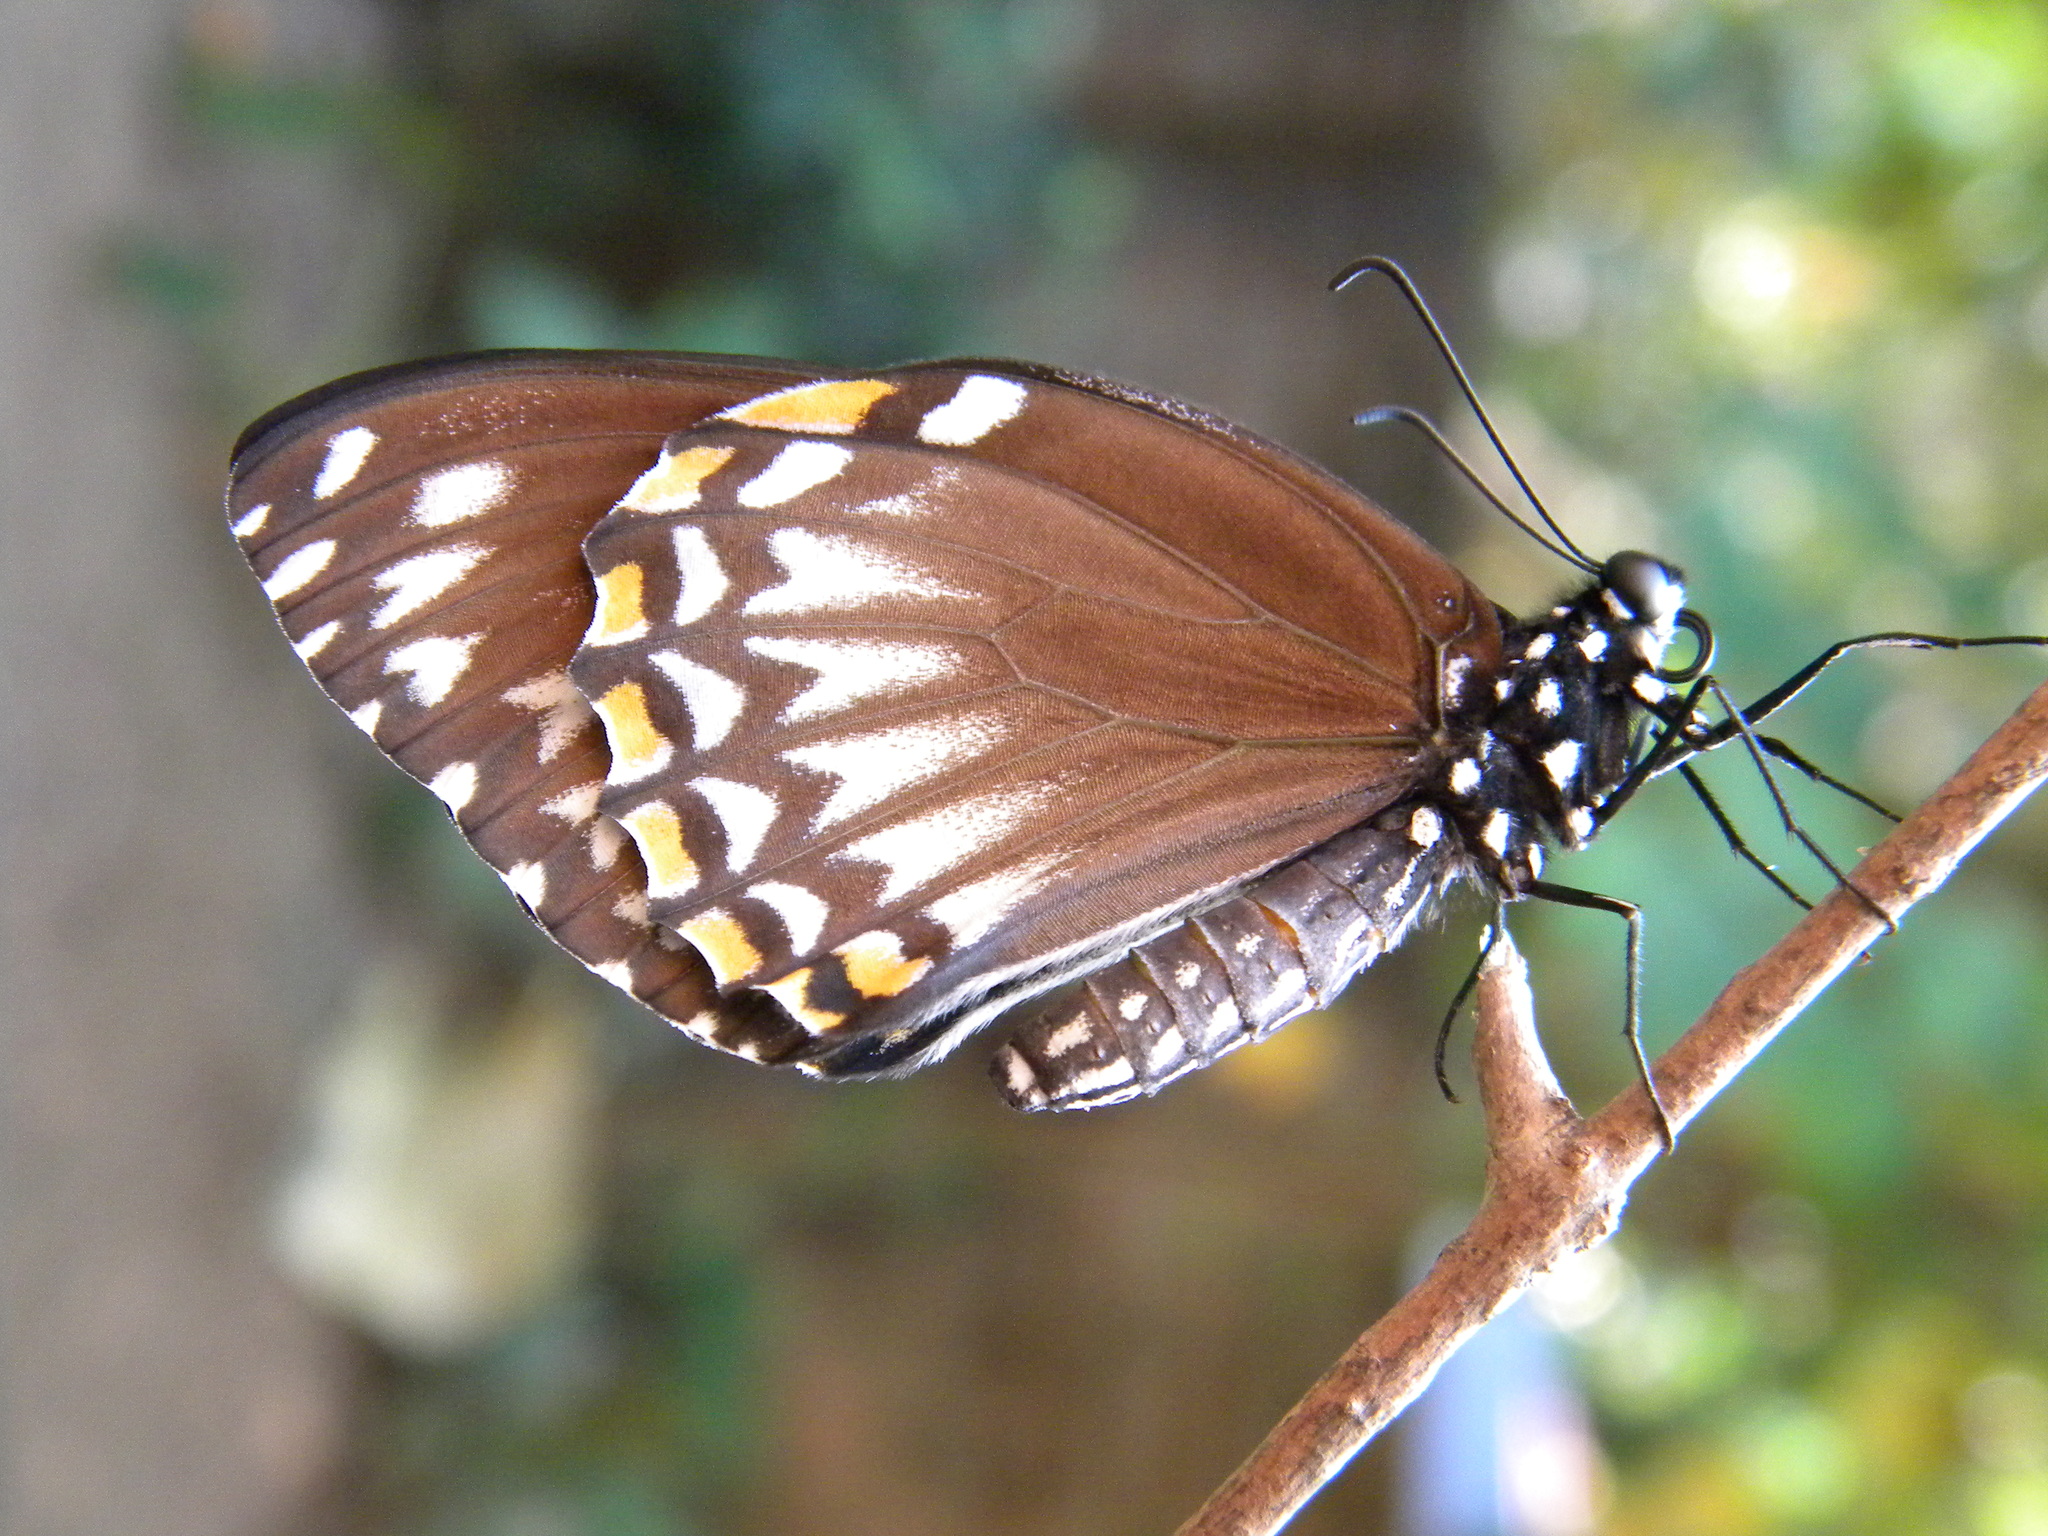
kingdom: Animalia
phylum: Arthropoda
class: Insecta
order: Lepidoptera
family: Papilionidae
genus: Chilasa
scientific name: Chilasa clytia
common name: Common mime
